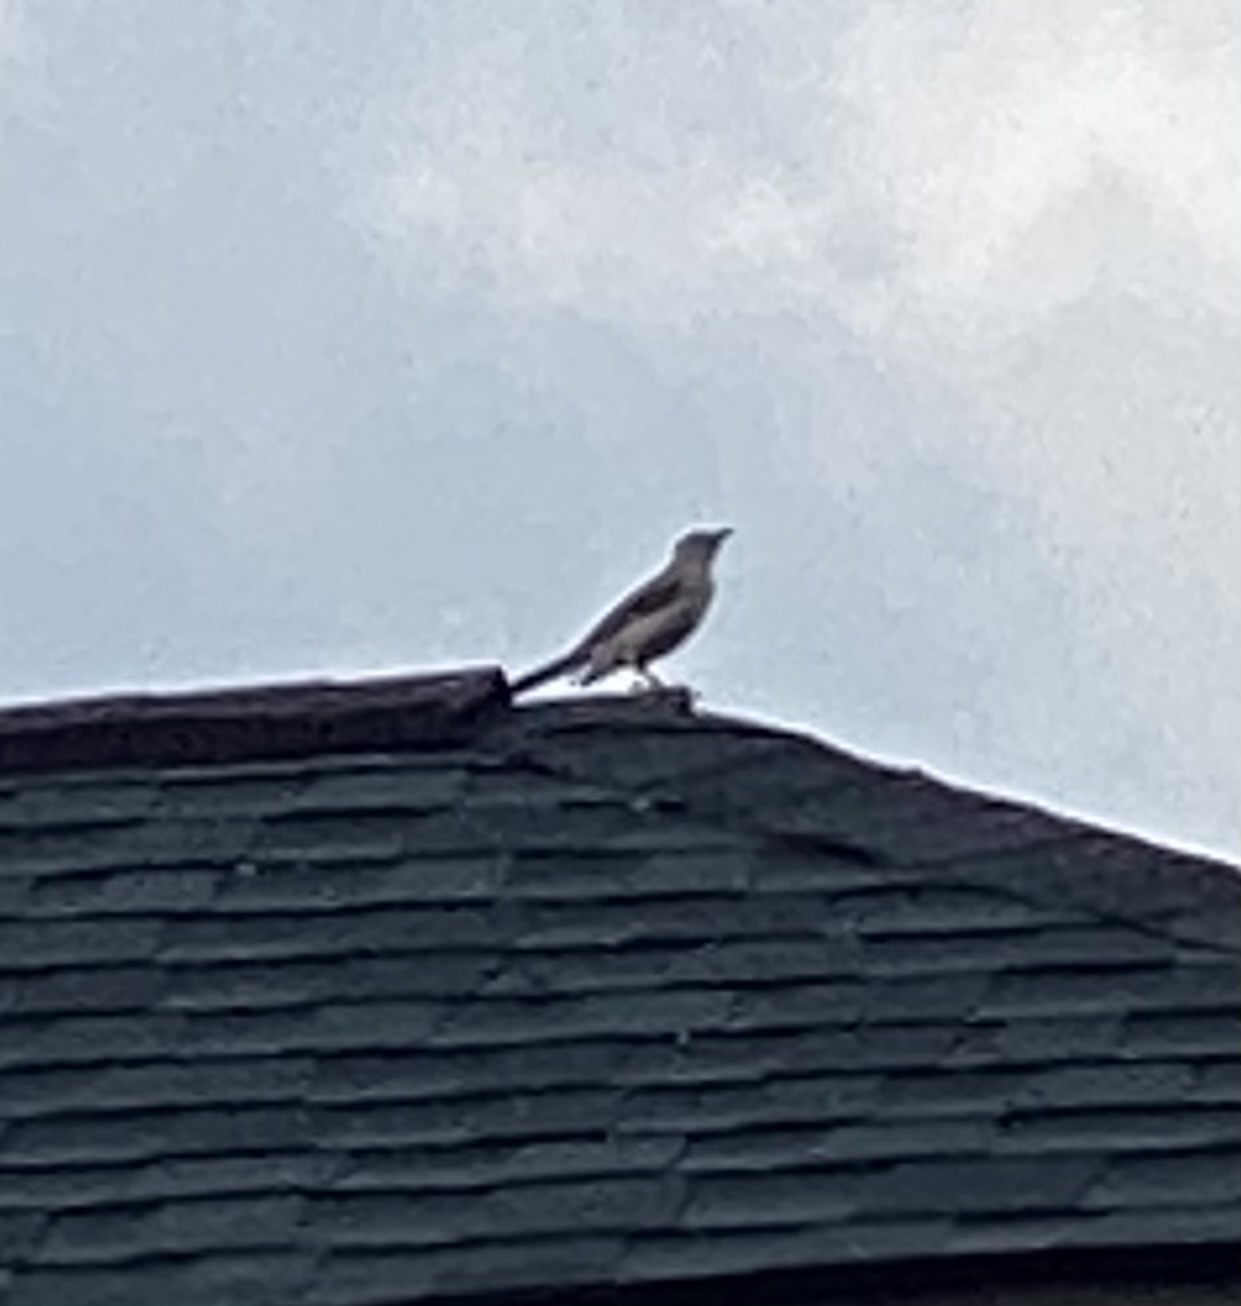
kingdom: Animalia
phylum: Chordata
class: Aves
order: Passeriformes
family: Mimidae
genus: Mimus
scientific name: Mimus polyglottos
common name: Northern mockingbird
